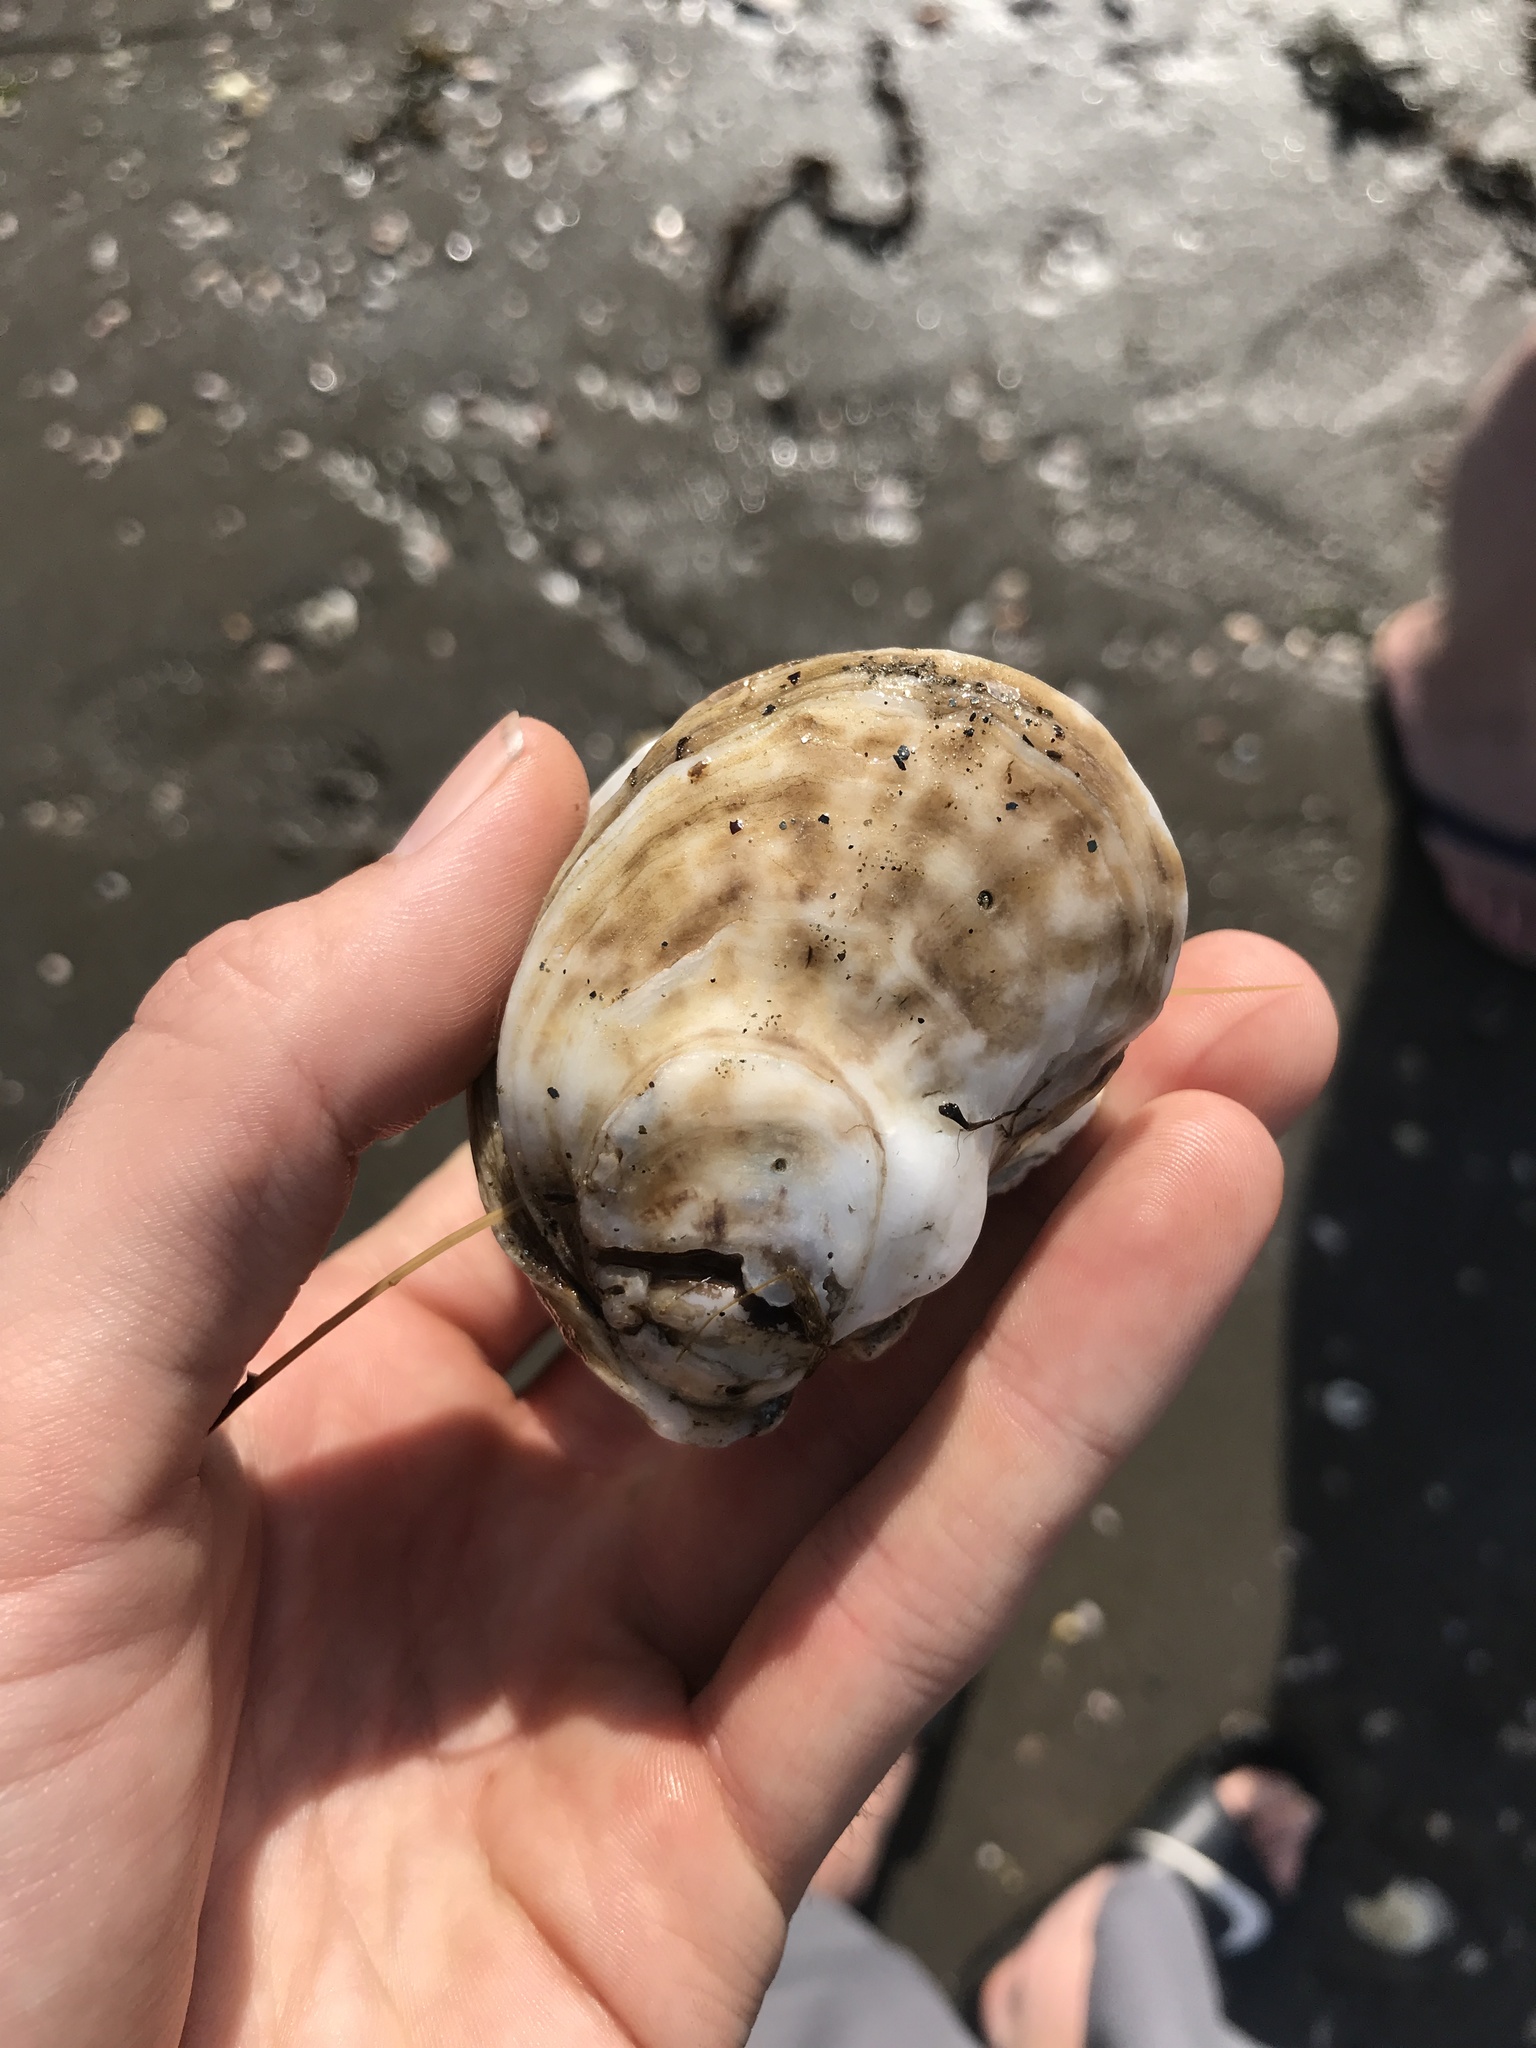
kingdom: Animalia
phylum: Mollusca
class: Bivalvia
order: Ostreida
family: Ostreidae
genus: Crassostrea
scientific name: Crassostrea virginica
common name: American oyster
